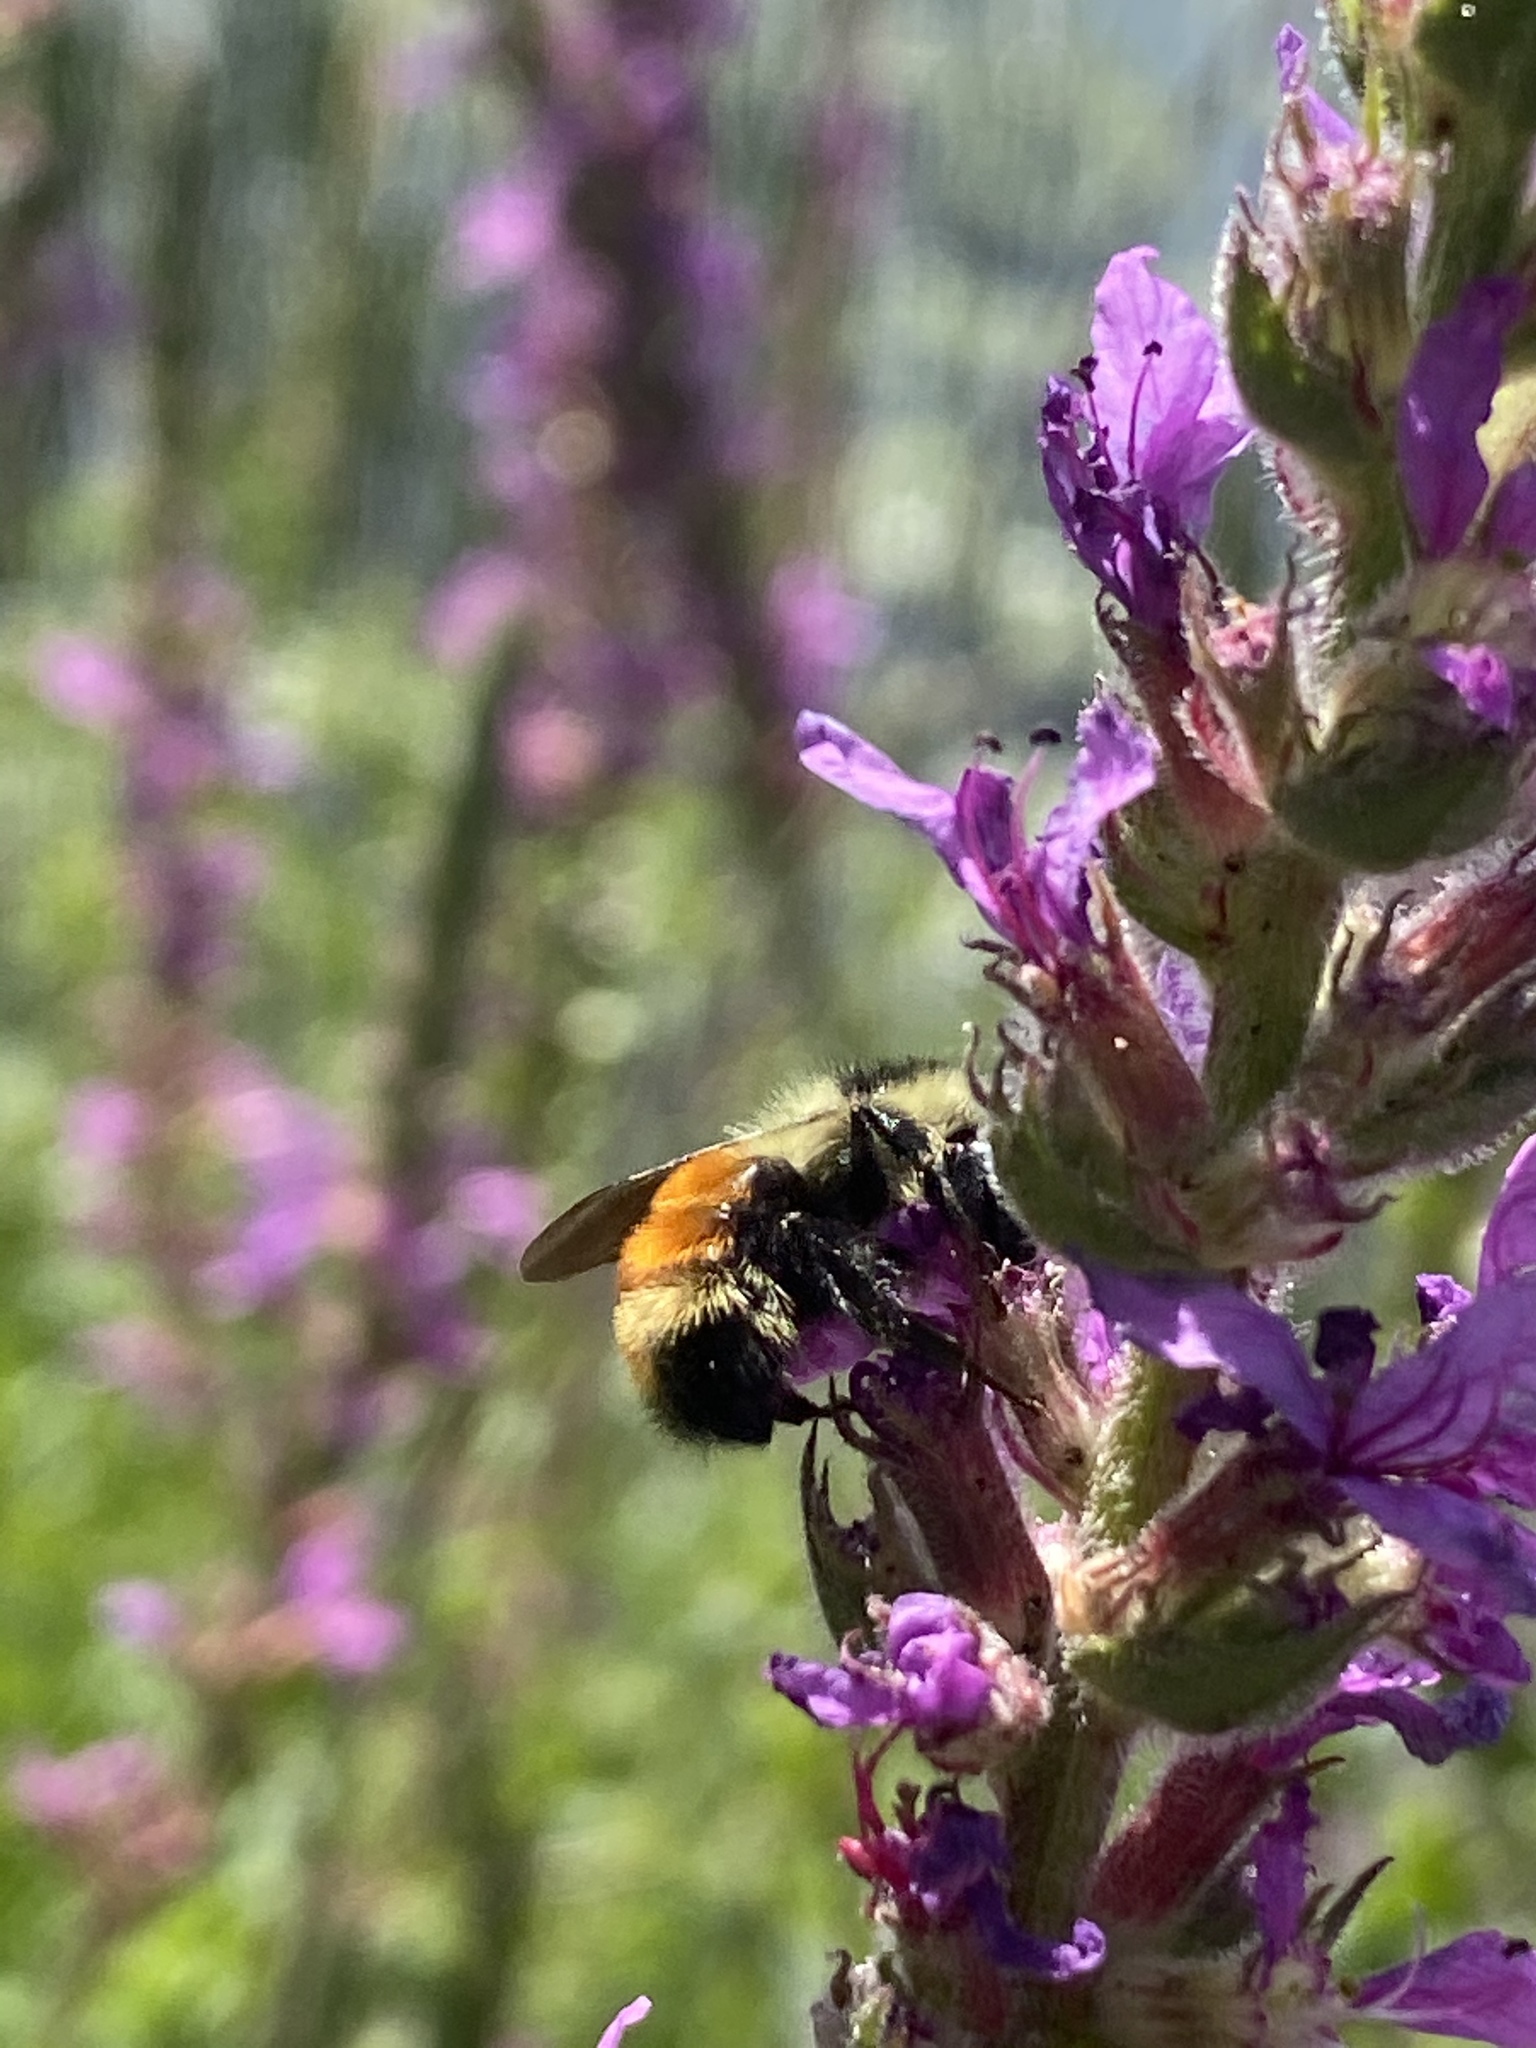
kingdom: Animalia
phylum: Arthropoda
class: Insecta
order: Hymenoptera
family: Apidae
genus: Bombus
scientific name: Bombus ternarius
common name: Tri-colored bumble bee
